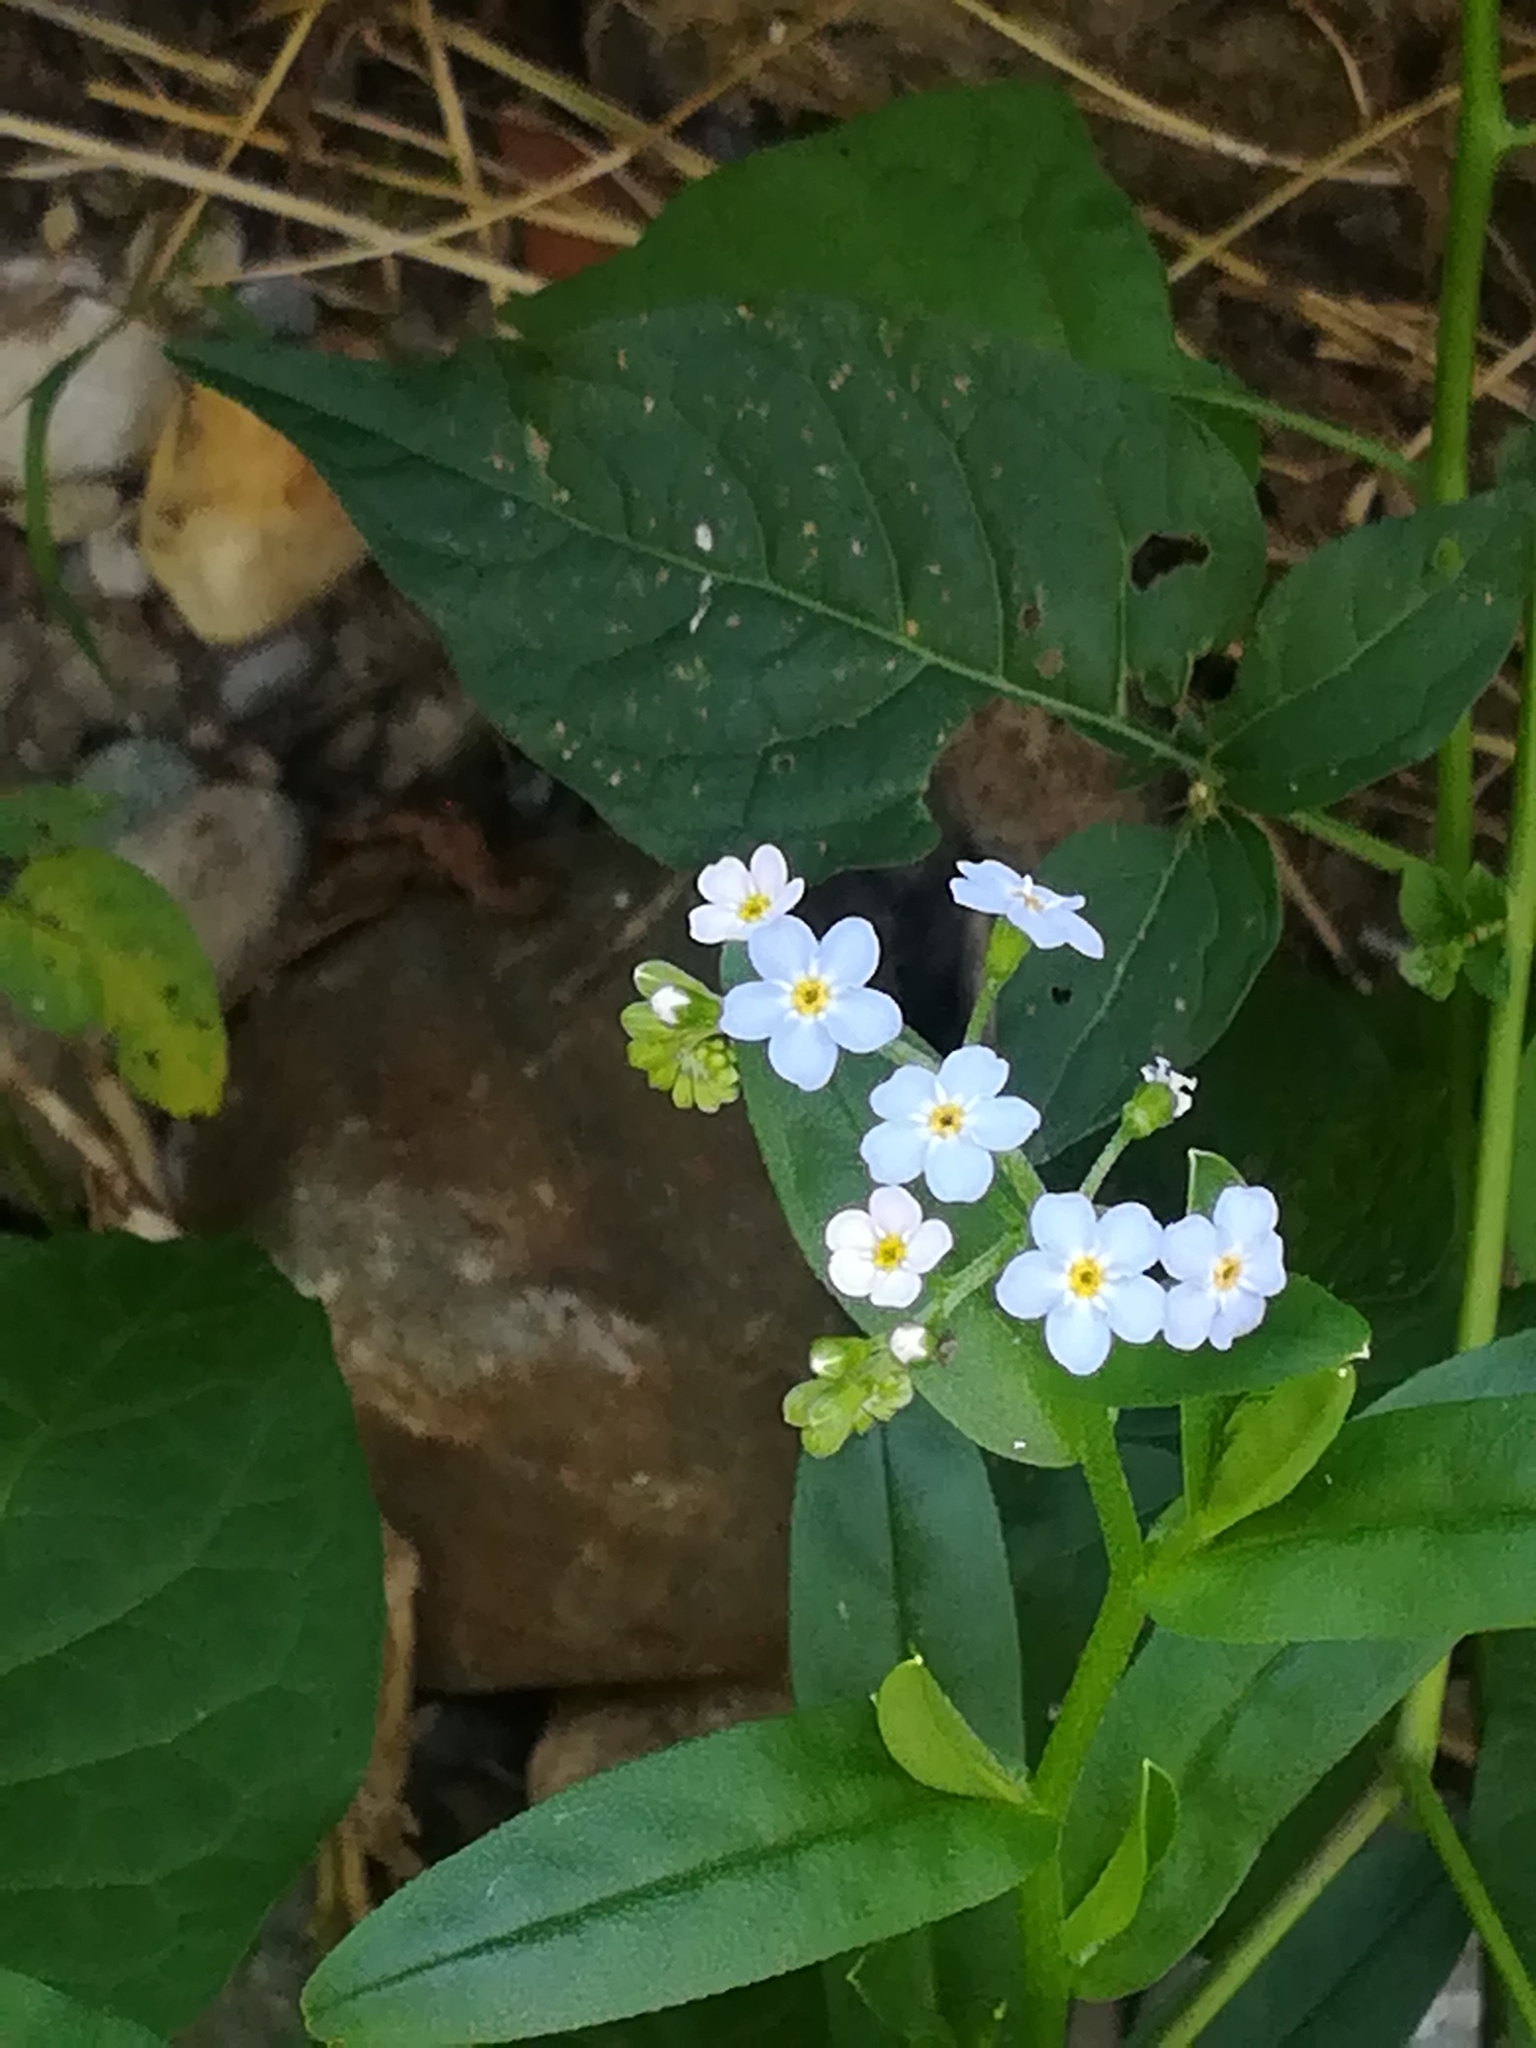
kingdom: Plantae
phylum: Tracheophyta
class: Magnoliopsida
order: Boraginales
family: Boraginaceae
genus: Myosotis
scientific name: Myosotis scorpioides
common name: Water forget-me-not
